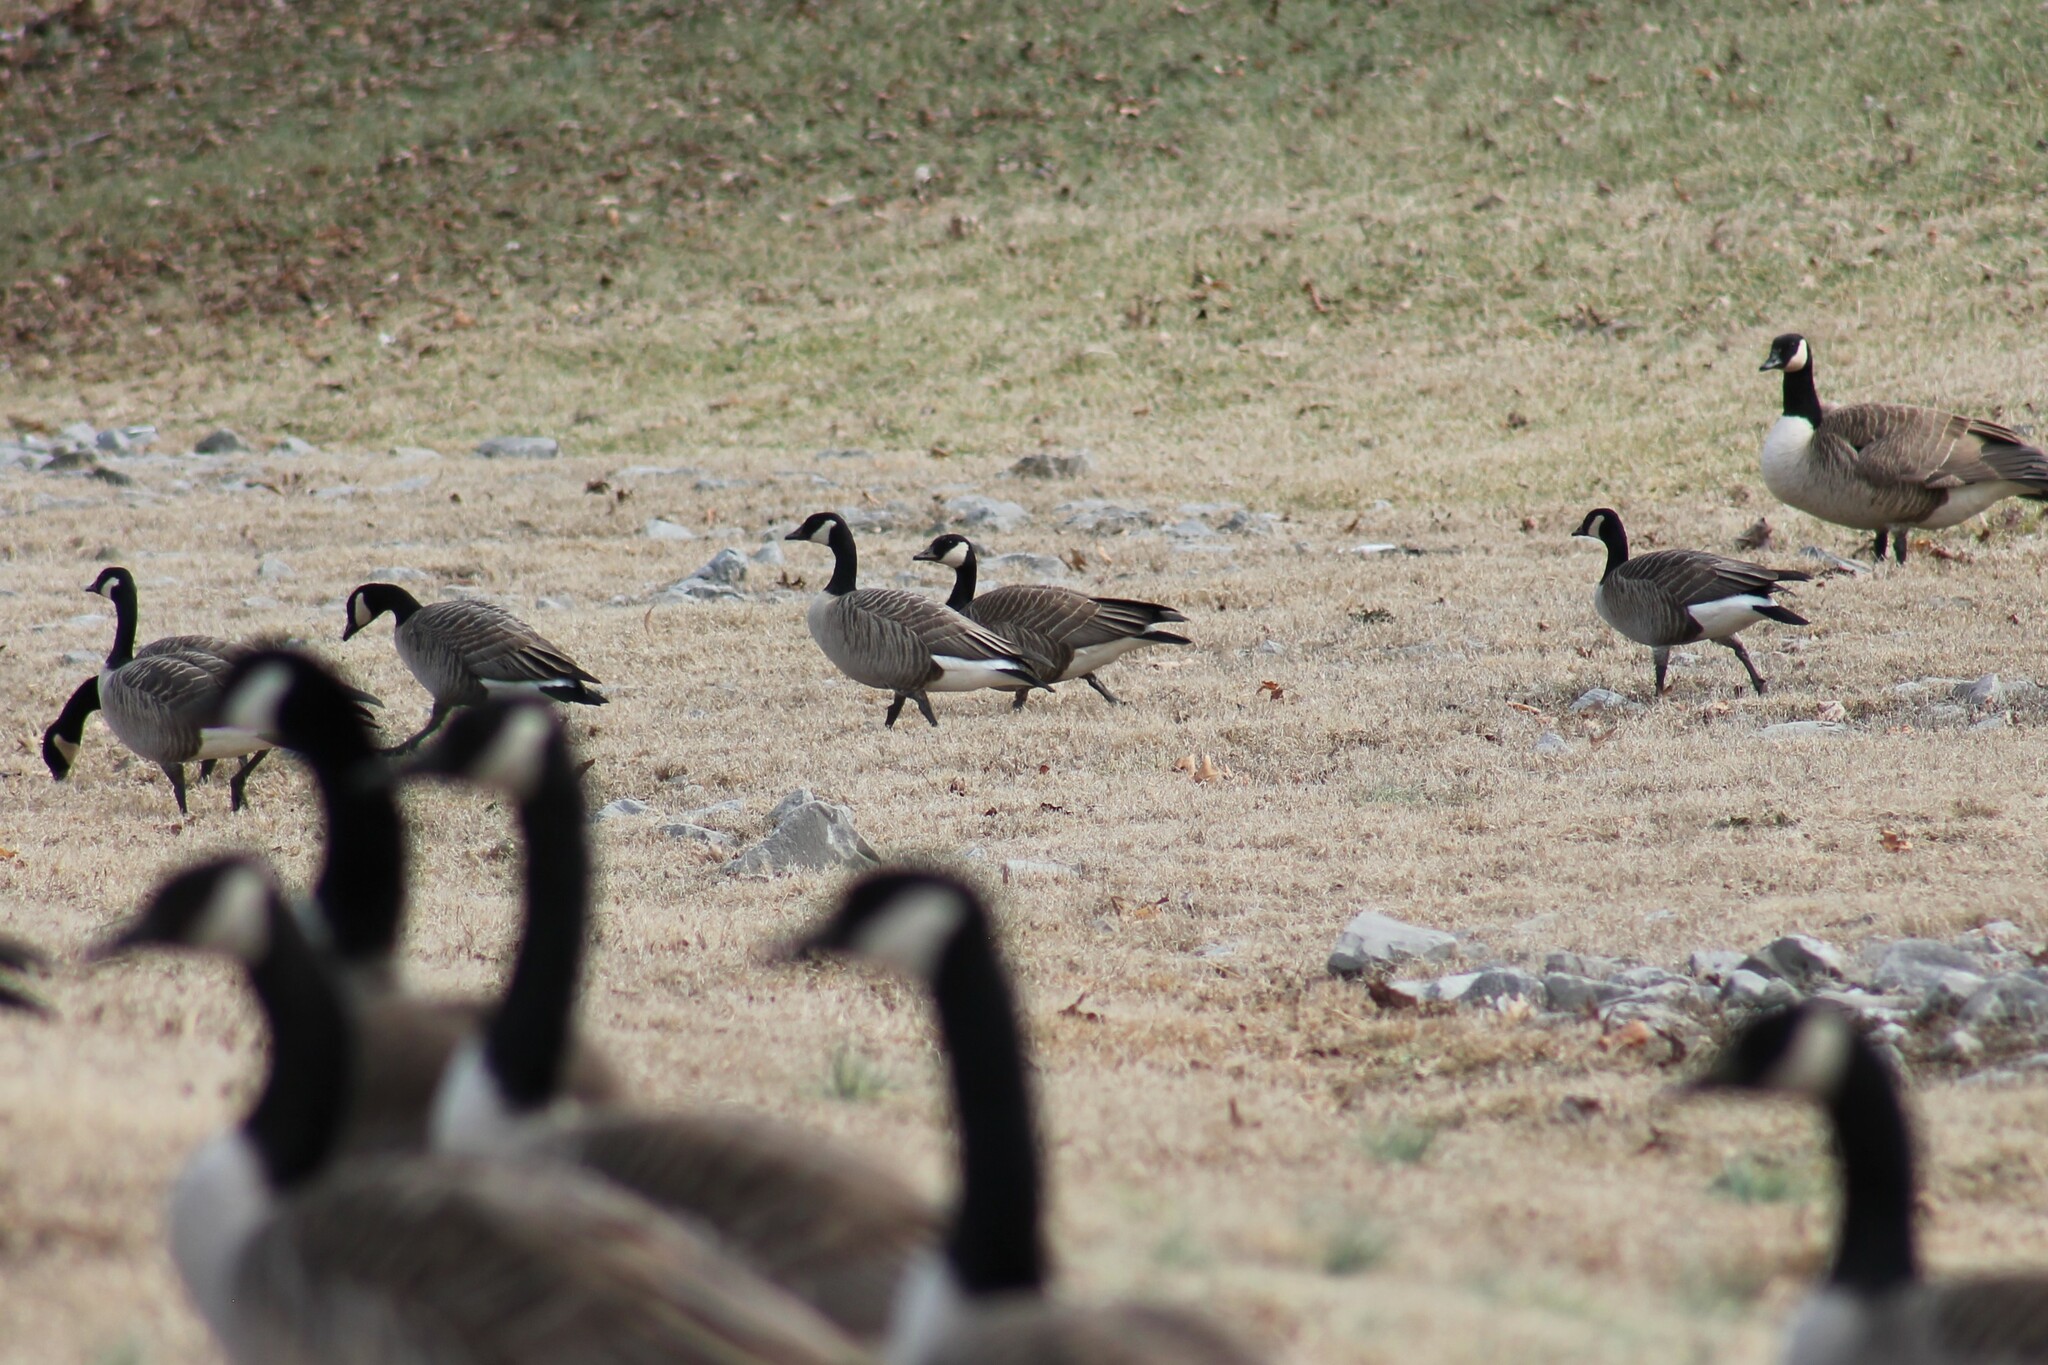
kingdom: Animalia
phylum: Chordata
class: Aves
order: Anseriformes
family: Anatidae
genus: Branta
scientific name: Branta hutchinsii
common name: Cackling goose
